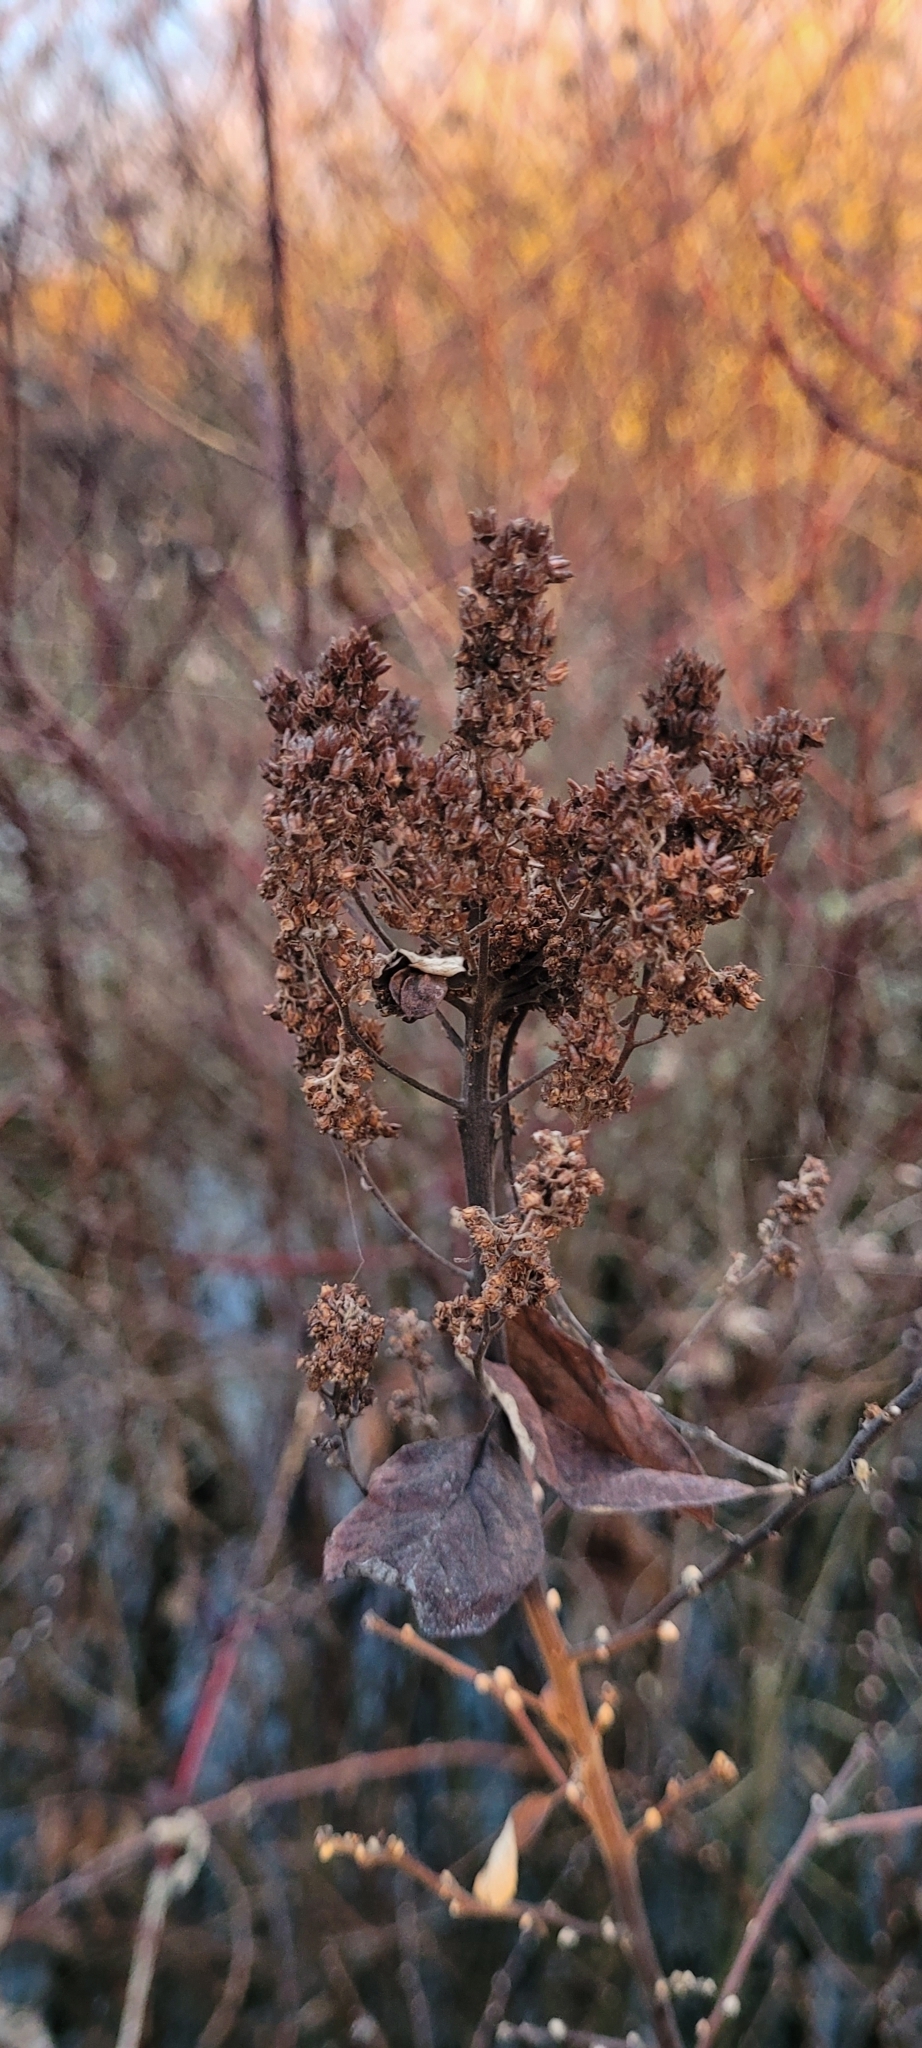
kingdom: Plantae
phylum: Tracheophyta
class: Magnoliopsida
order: Rosales
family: Rosaceae
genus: Spiraea
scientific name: Spiraea douglasii
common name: Steeplebush
